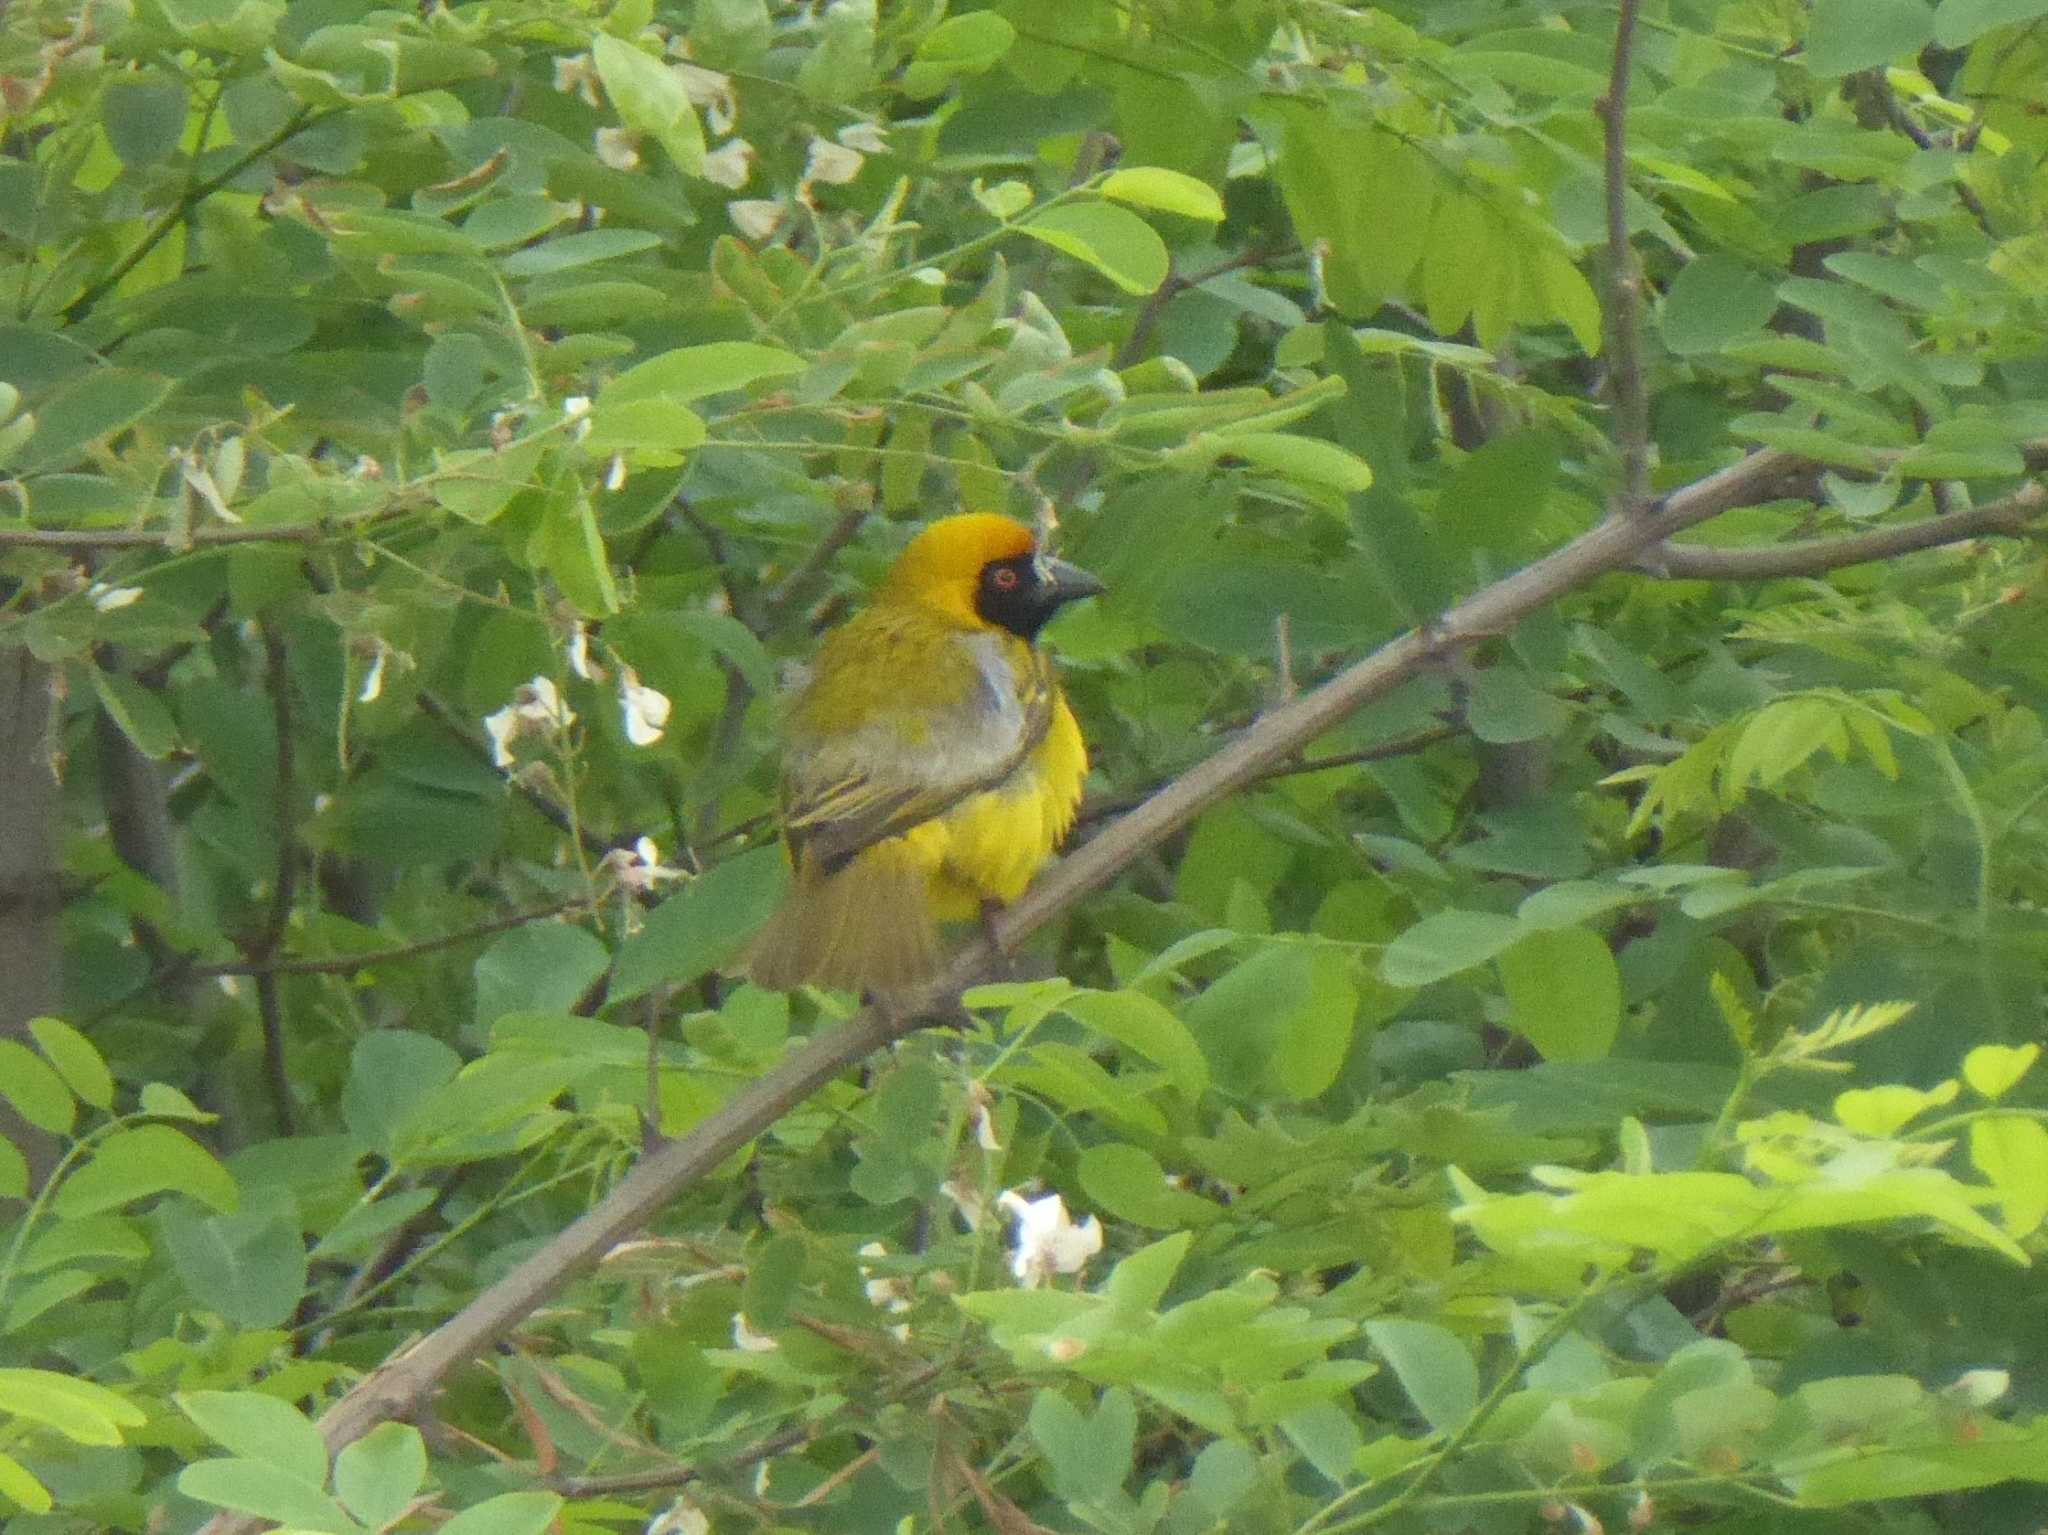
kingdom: Animalia
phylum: Chordata
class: Aves
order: Passeriformes
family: Ploceidae
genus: Ploceus
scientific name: Ploceus velatus
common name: Southern masked weaver
